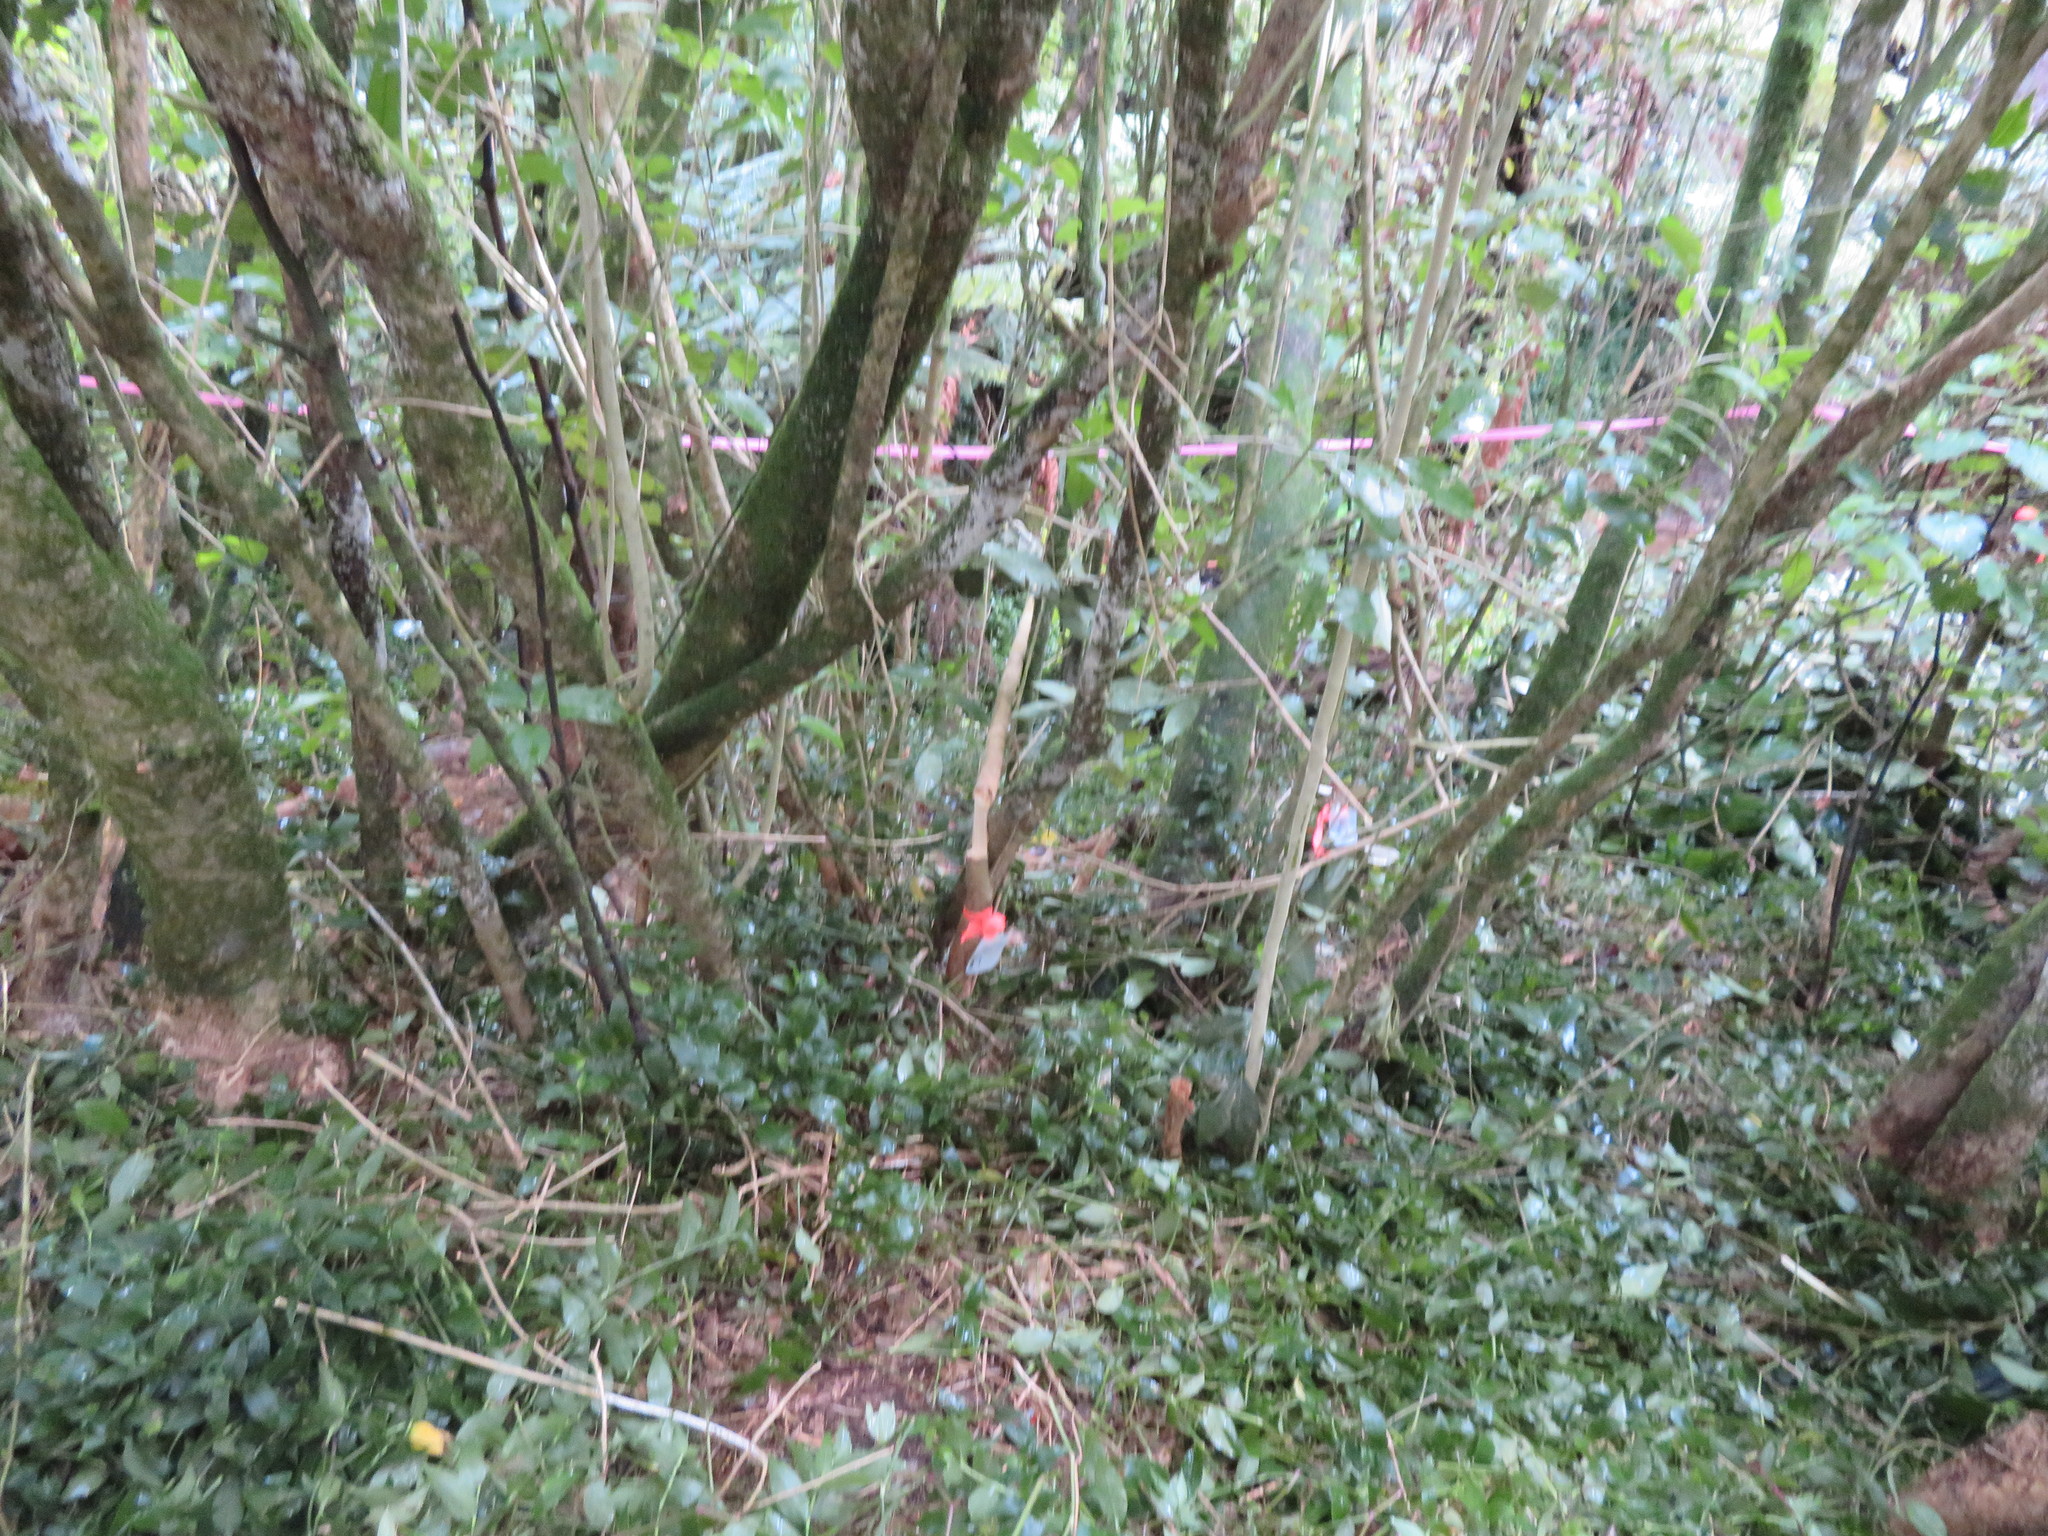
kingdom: Plantae
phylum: Tracheophyta
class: Magnoliopsida
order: Lamiales
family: Oleaceae
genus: Ligustrum
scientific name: Ligustrum lucidum
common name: Glossy privet
